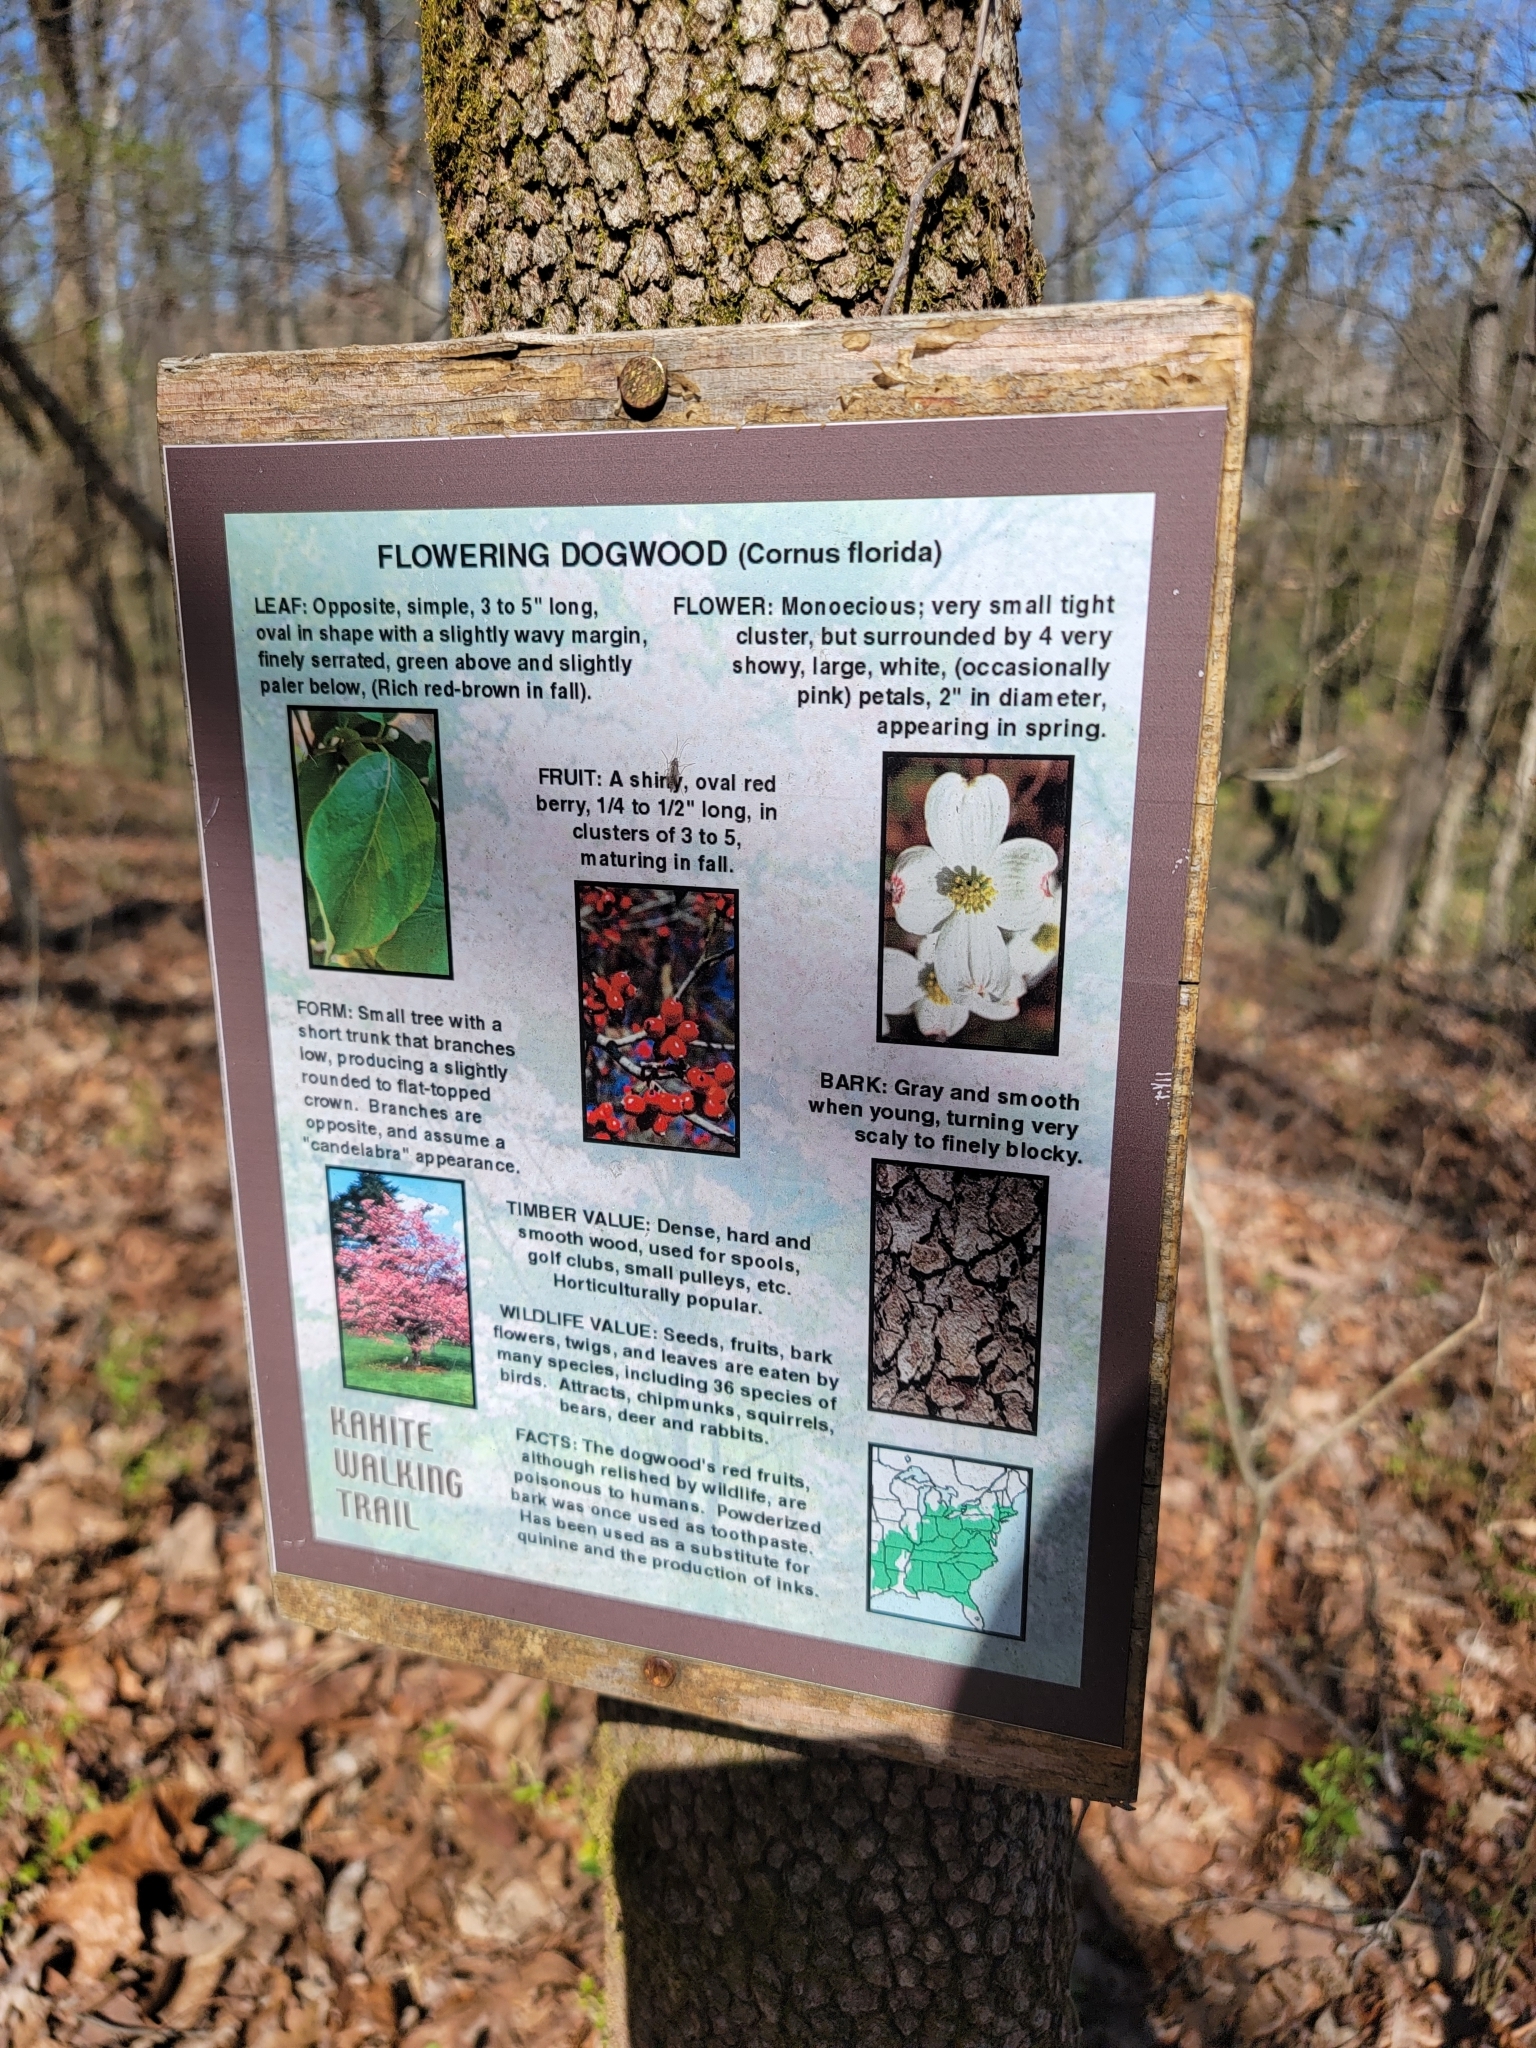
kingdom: Plantae
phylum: Tracheophyta
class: Magnoliopsida
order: Cornales
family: Cornaceae
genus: Cornus
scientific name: Cornus florida
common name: Flowering dogwood
